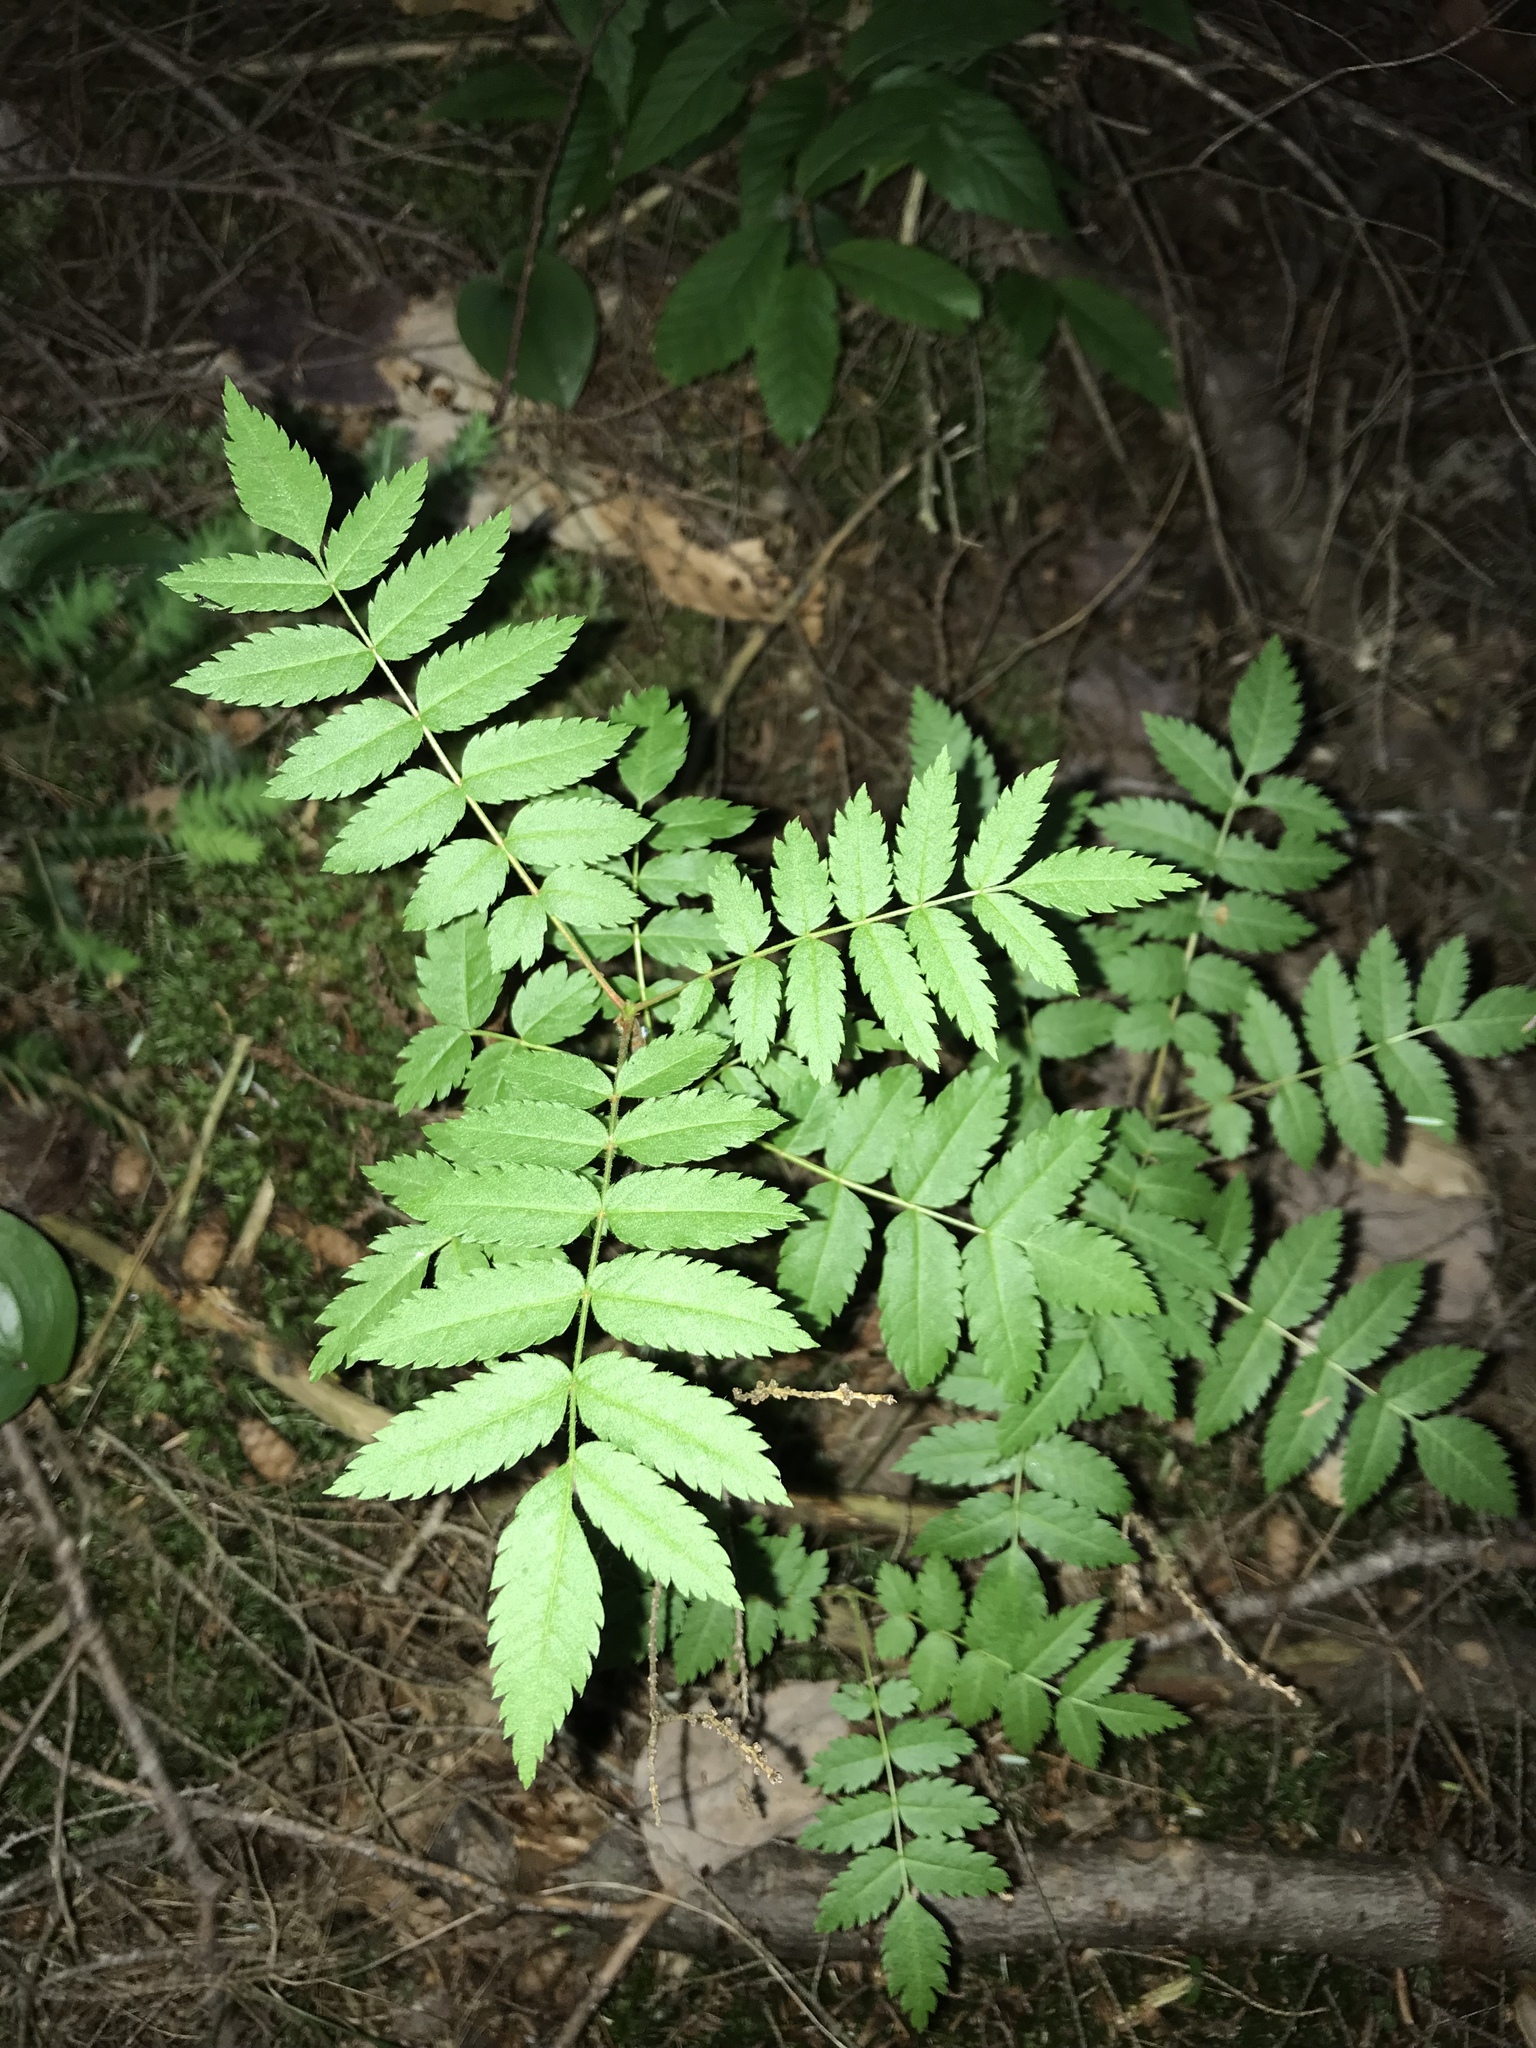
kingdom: Plantae
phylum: Tracheophyta
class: Magnoliopsida
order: Rosales
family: Rosaceae
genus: Sorbus
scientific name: Sorbus americana
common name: American mountain-ash
